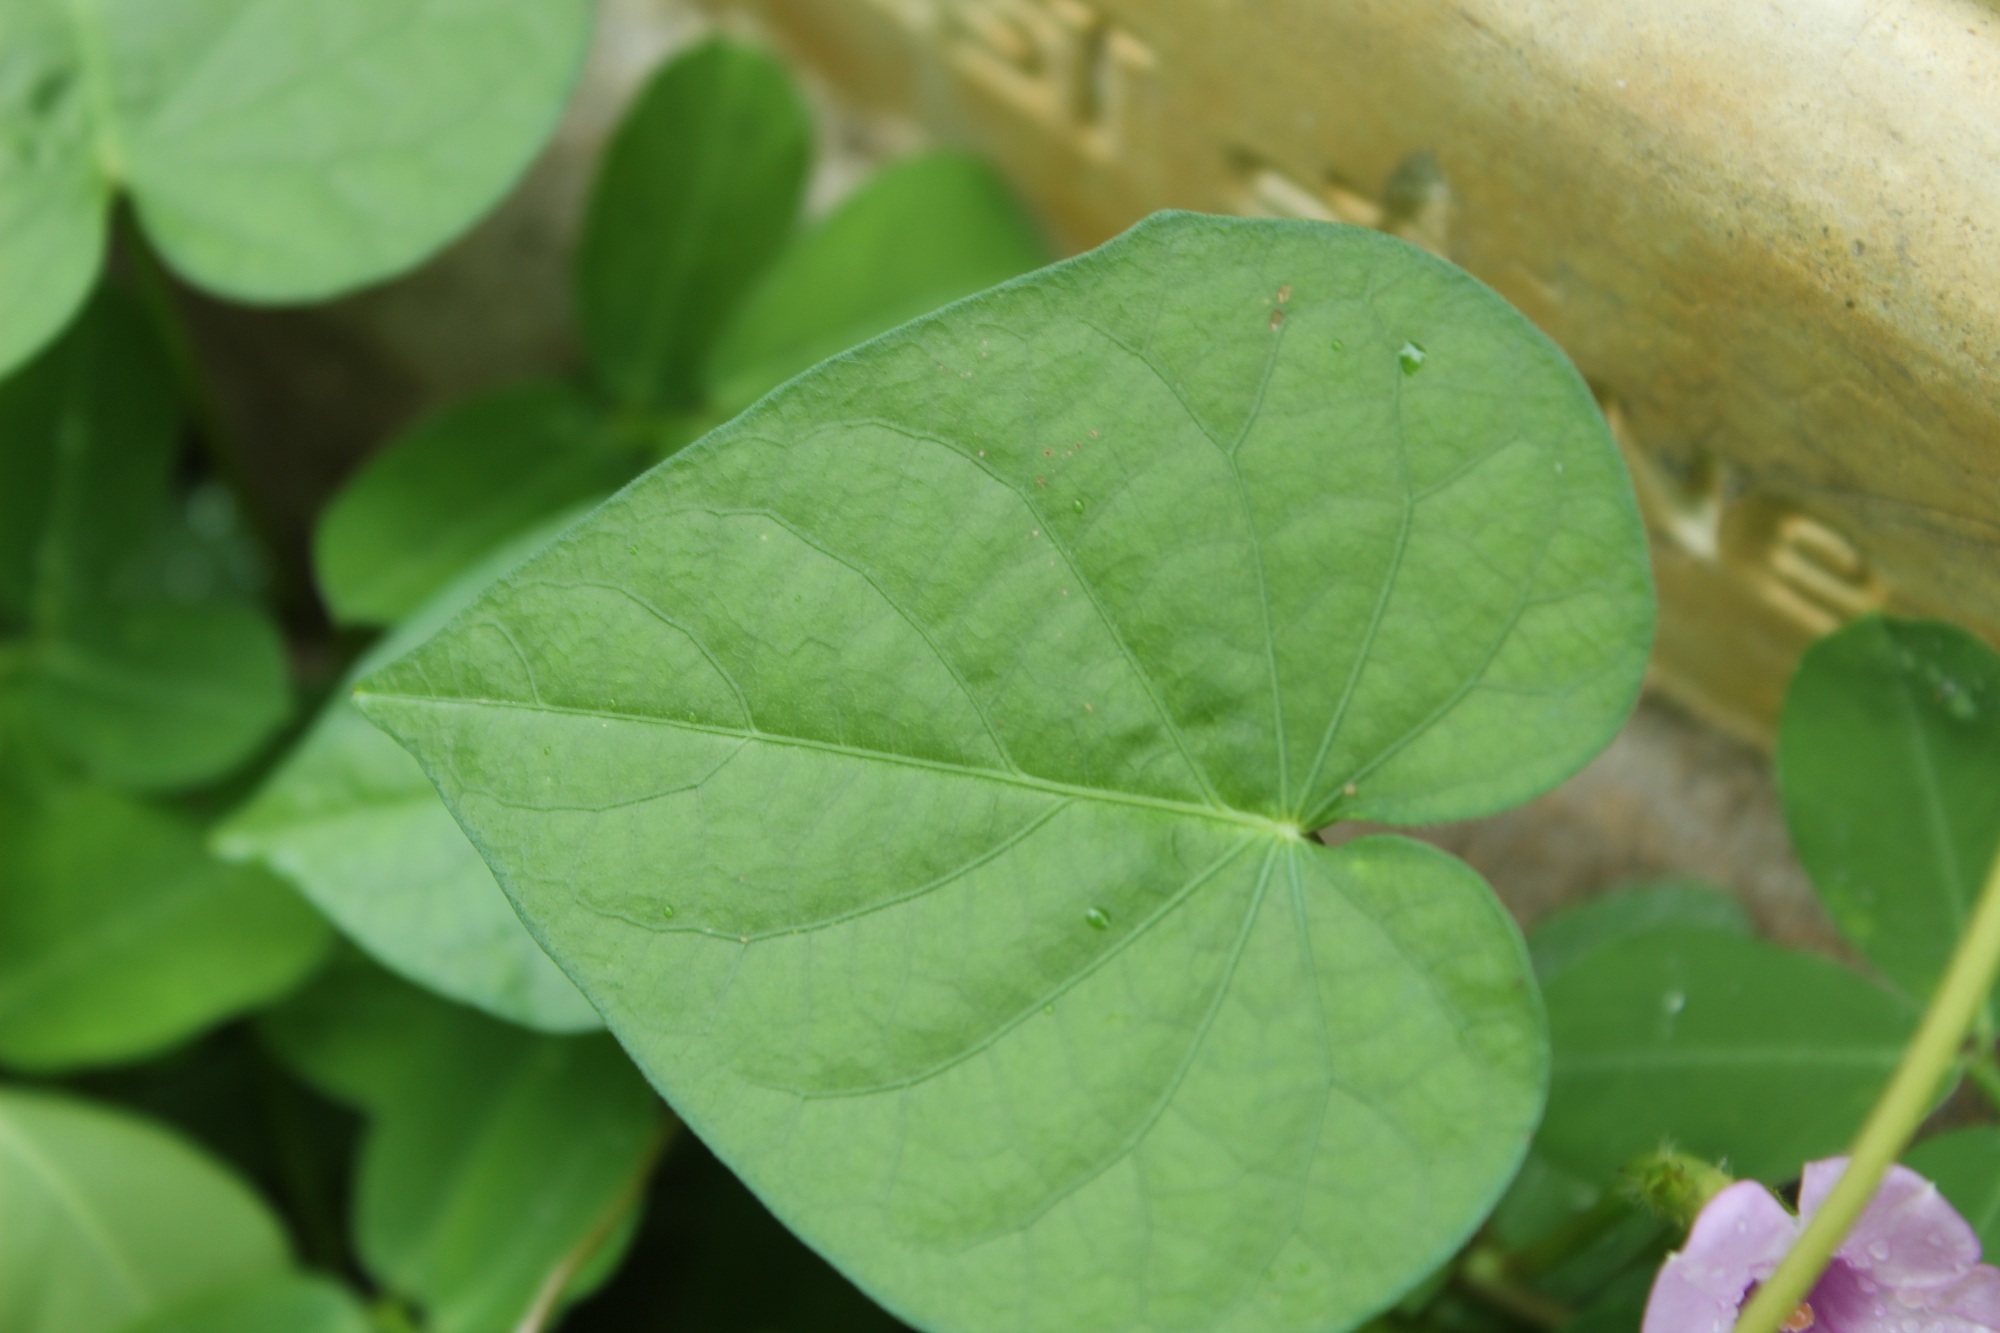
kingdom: Plantae
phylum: Tracheophyta
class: Magnoliopsida
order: Solanales
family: Convolvulaceae
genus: Ipomoea
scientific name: Ipomoea aristolochiifolia
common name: Aristolochia-leaved morning-glory
